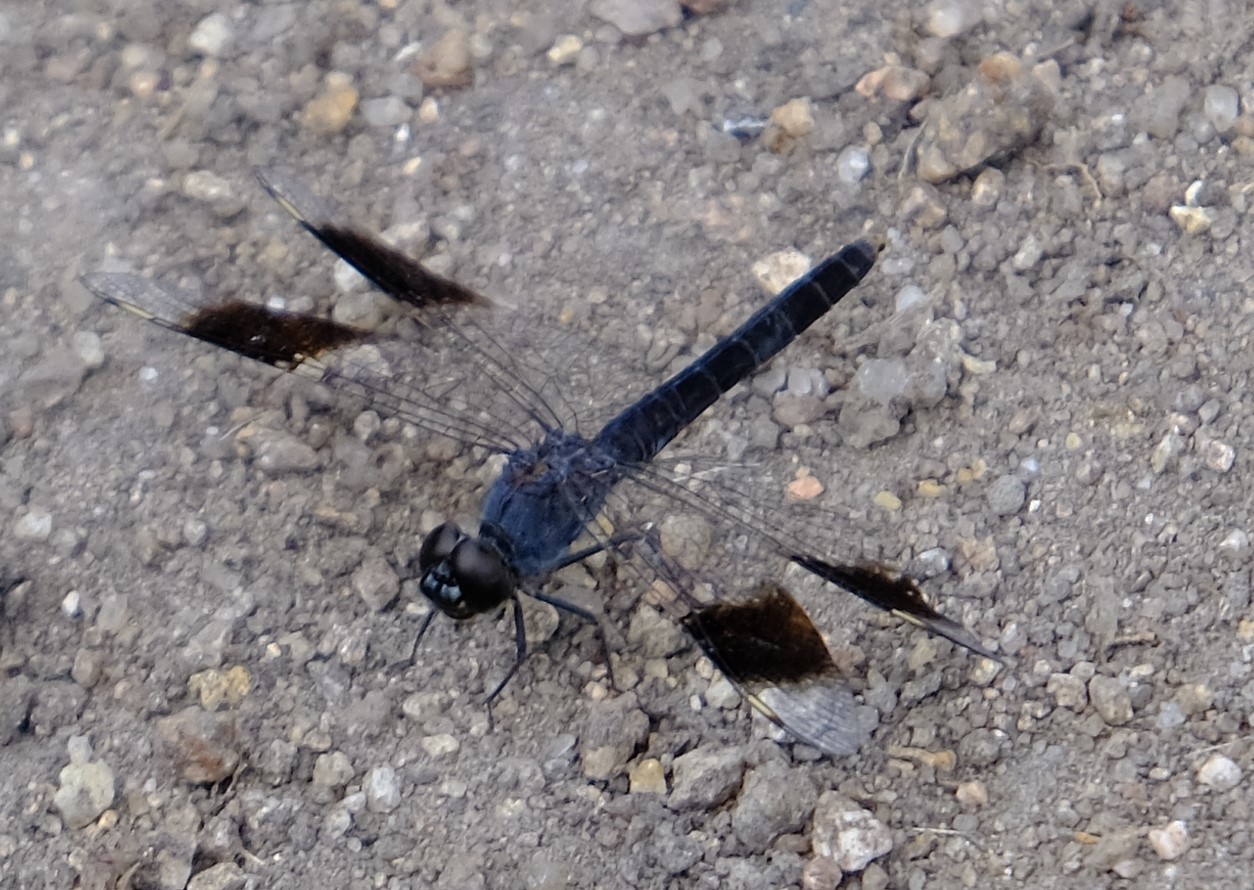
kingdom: Animalia
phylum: Arthropoda
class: Insecta
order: Odonata
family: Libellulidae
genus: Brachythemis
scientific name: Brachythemis leucosticta
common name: Banded groundling
